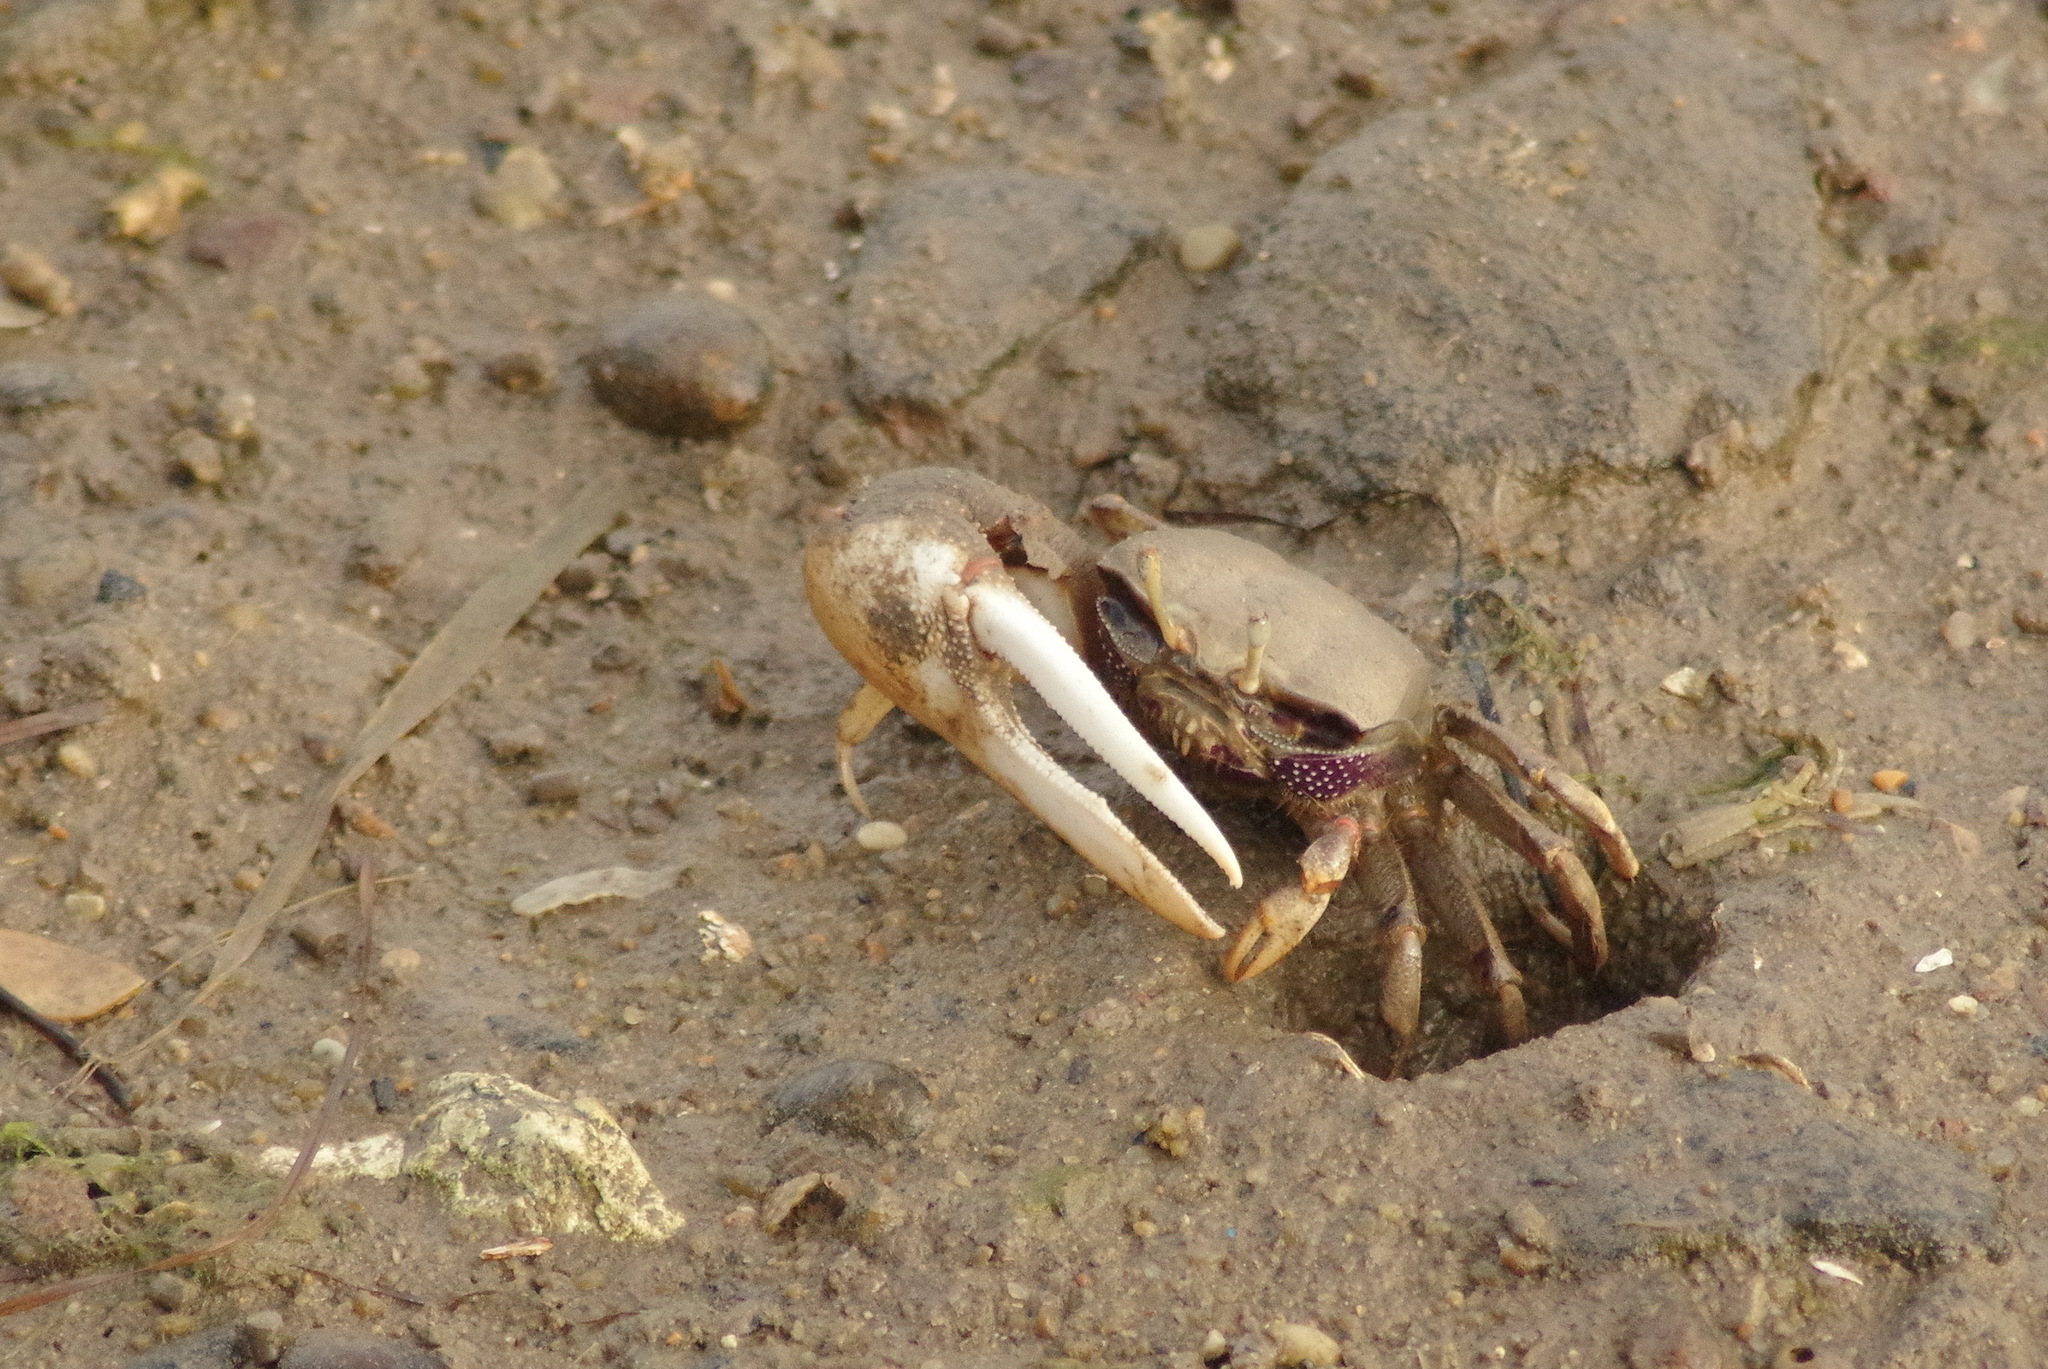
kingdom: Animalia
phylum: Arthropoda
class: Malacostraca
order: Decapoda
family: Ocypodidae
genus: Afruca
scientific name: Afruca tangeri
